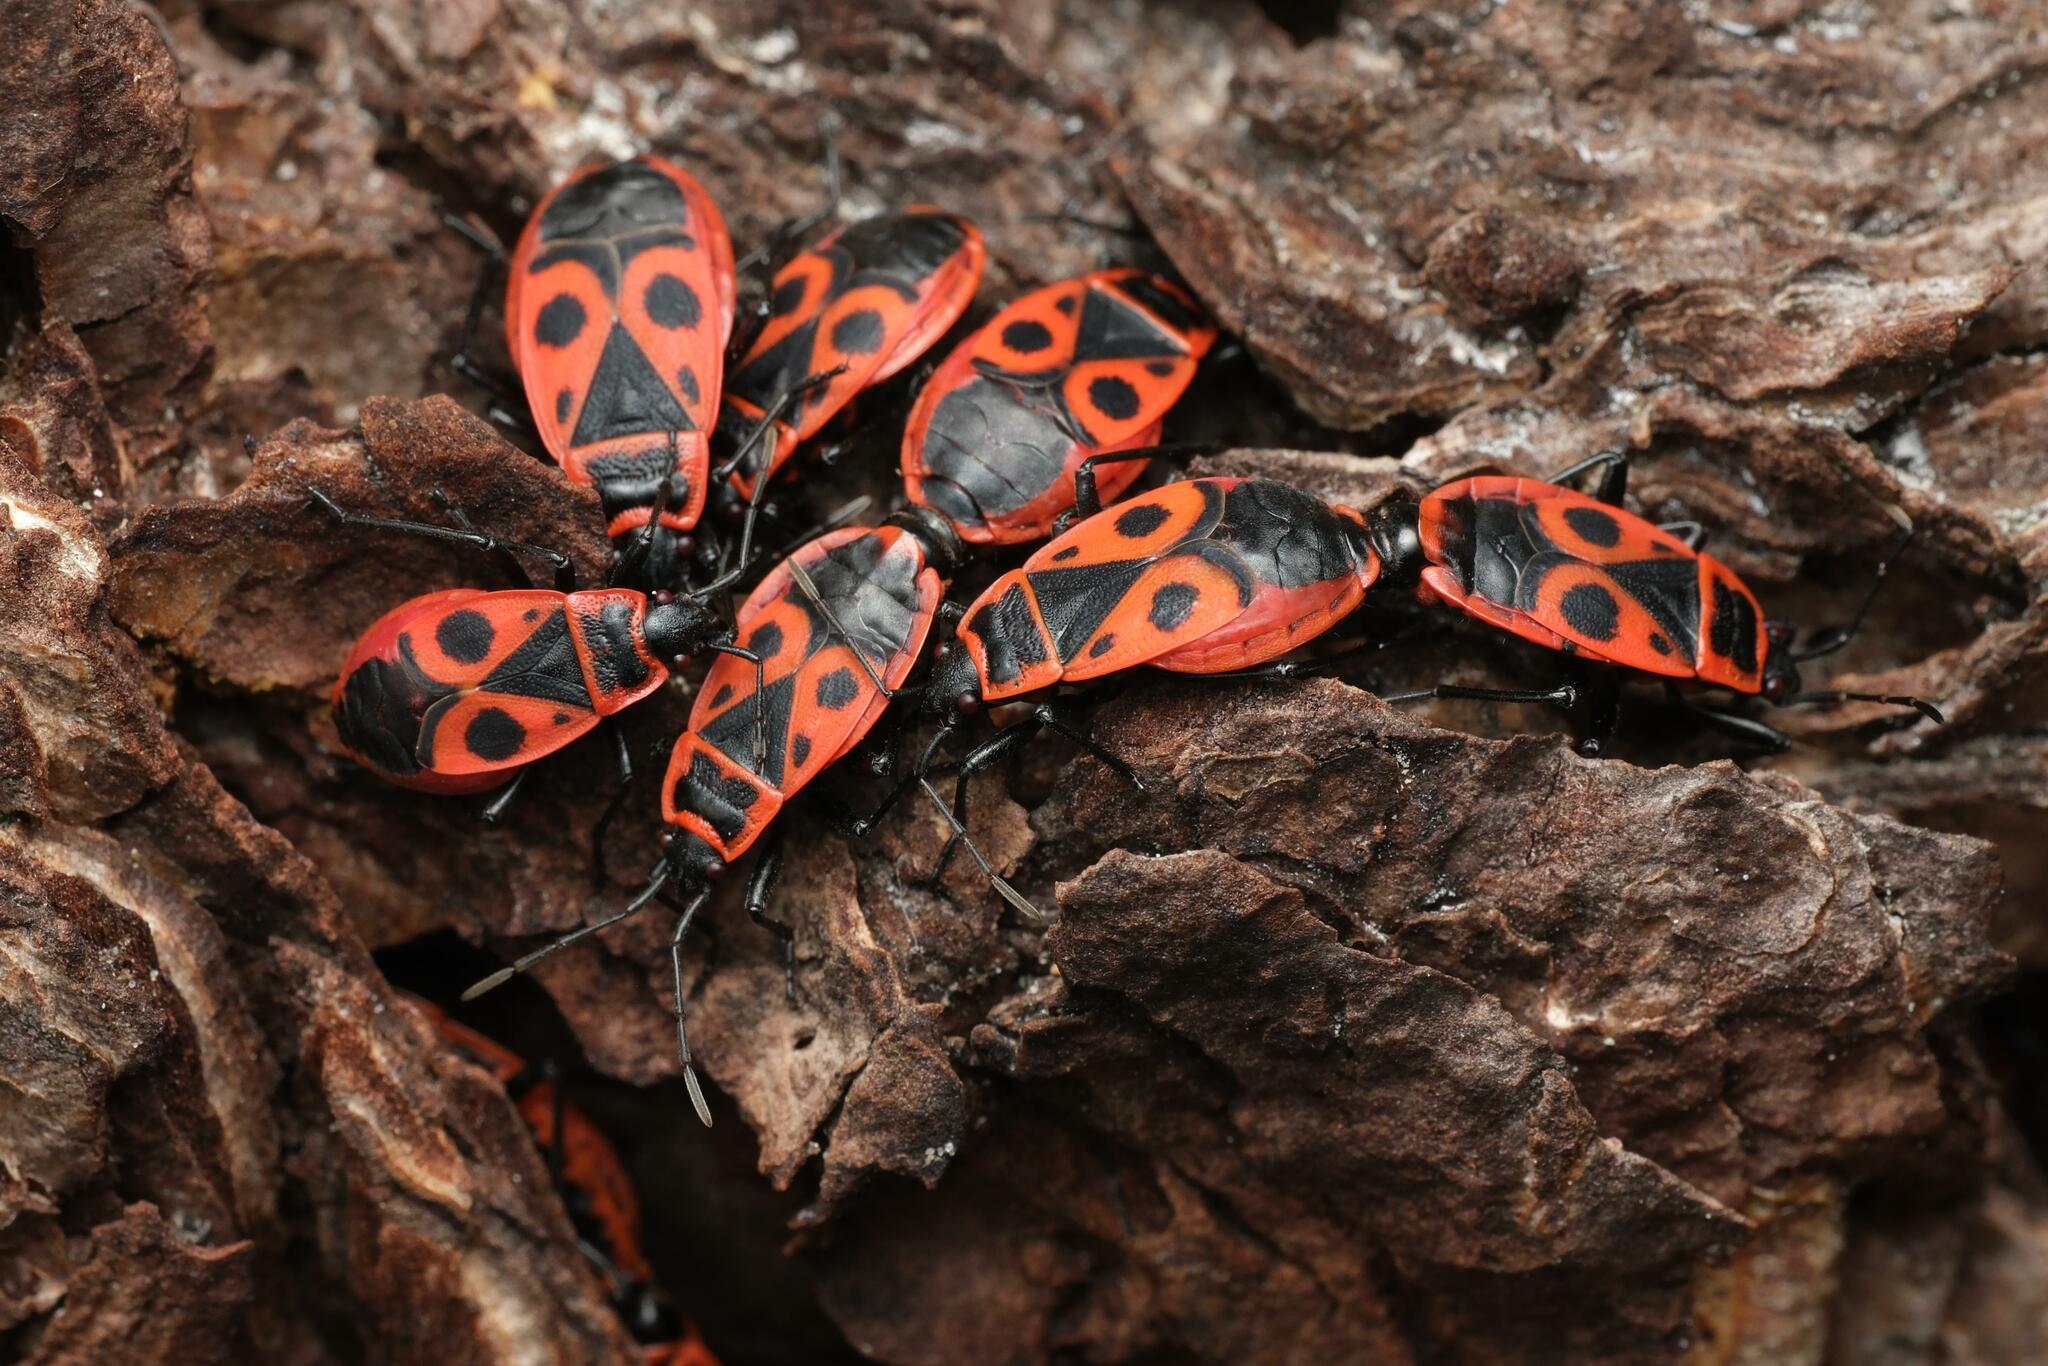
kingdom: Animalia
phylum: Arthropoda
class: Insecta
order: Hemiptera
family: Pyrrhocoridae
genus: Pyrrhocoris
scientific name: Pyrrhocoris apterus
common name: Firebug
